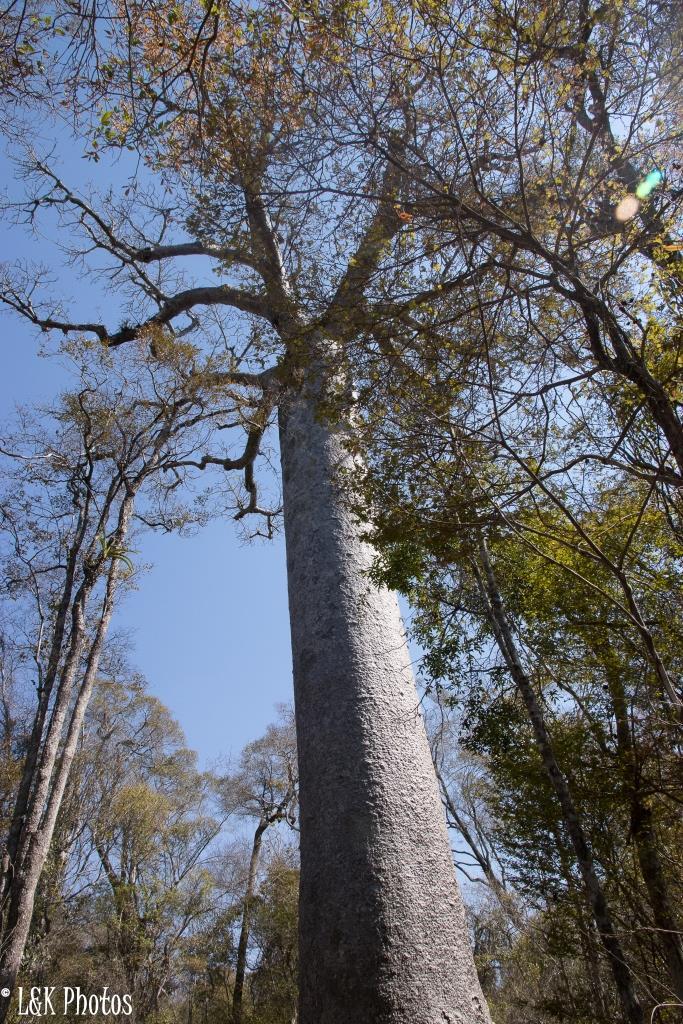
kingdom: Plantae
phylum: Tracheophyta
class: Magnoliopsida
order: Malvales
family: Malvaceae
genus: Adansonia
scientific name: Adansonia grandidieri
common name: Grandidier's baobab
